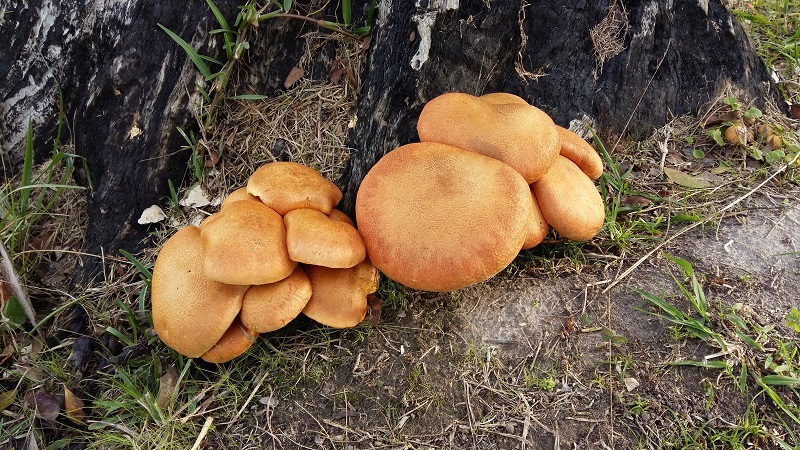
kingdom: Fungi
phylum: Basidiomycota
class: Agaricomycetes
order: Agaricales
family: Hymenogastraceae
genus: Gymnopilus
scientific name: Gymnopilus junonius
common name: Spectacular rustgill
